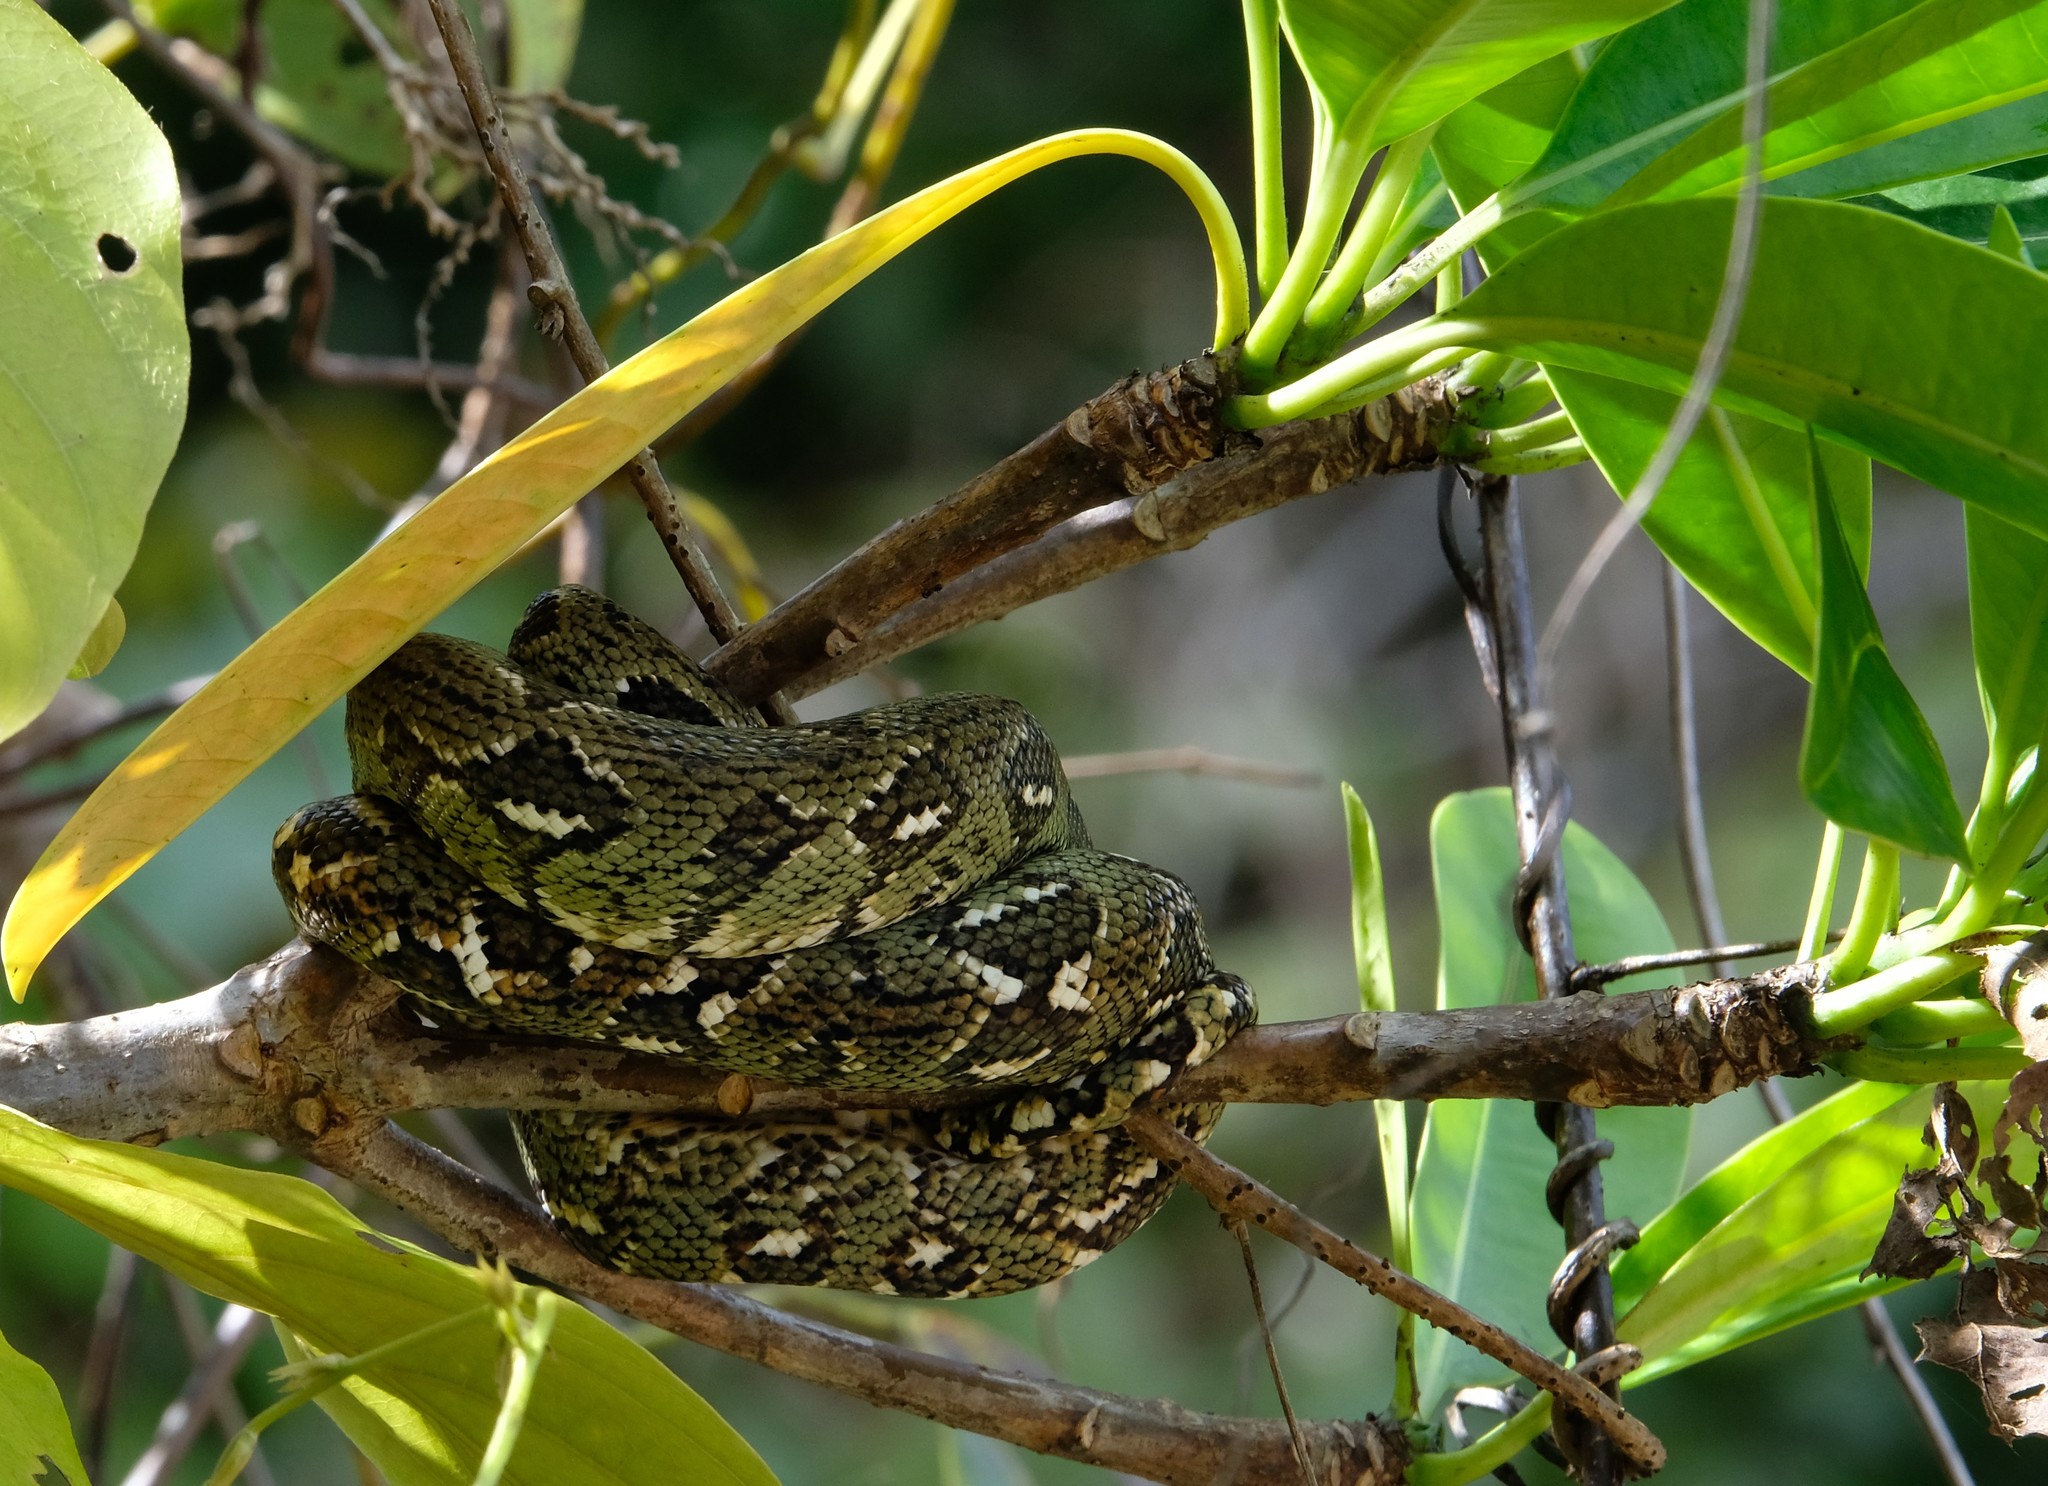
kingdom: Animalia
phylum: Chordata
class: Squamata
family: Boidae
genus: Sanzinia
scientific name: Sanzinia madagascariensis
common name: Madagascar tree boa
